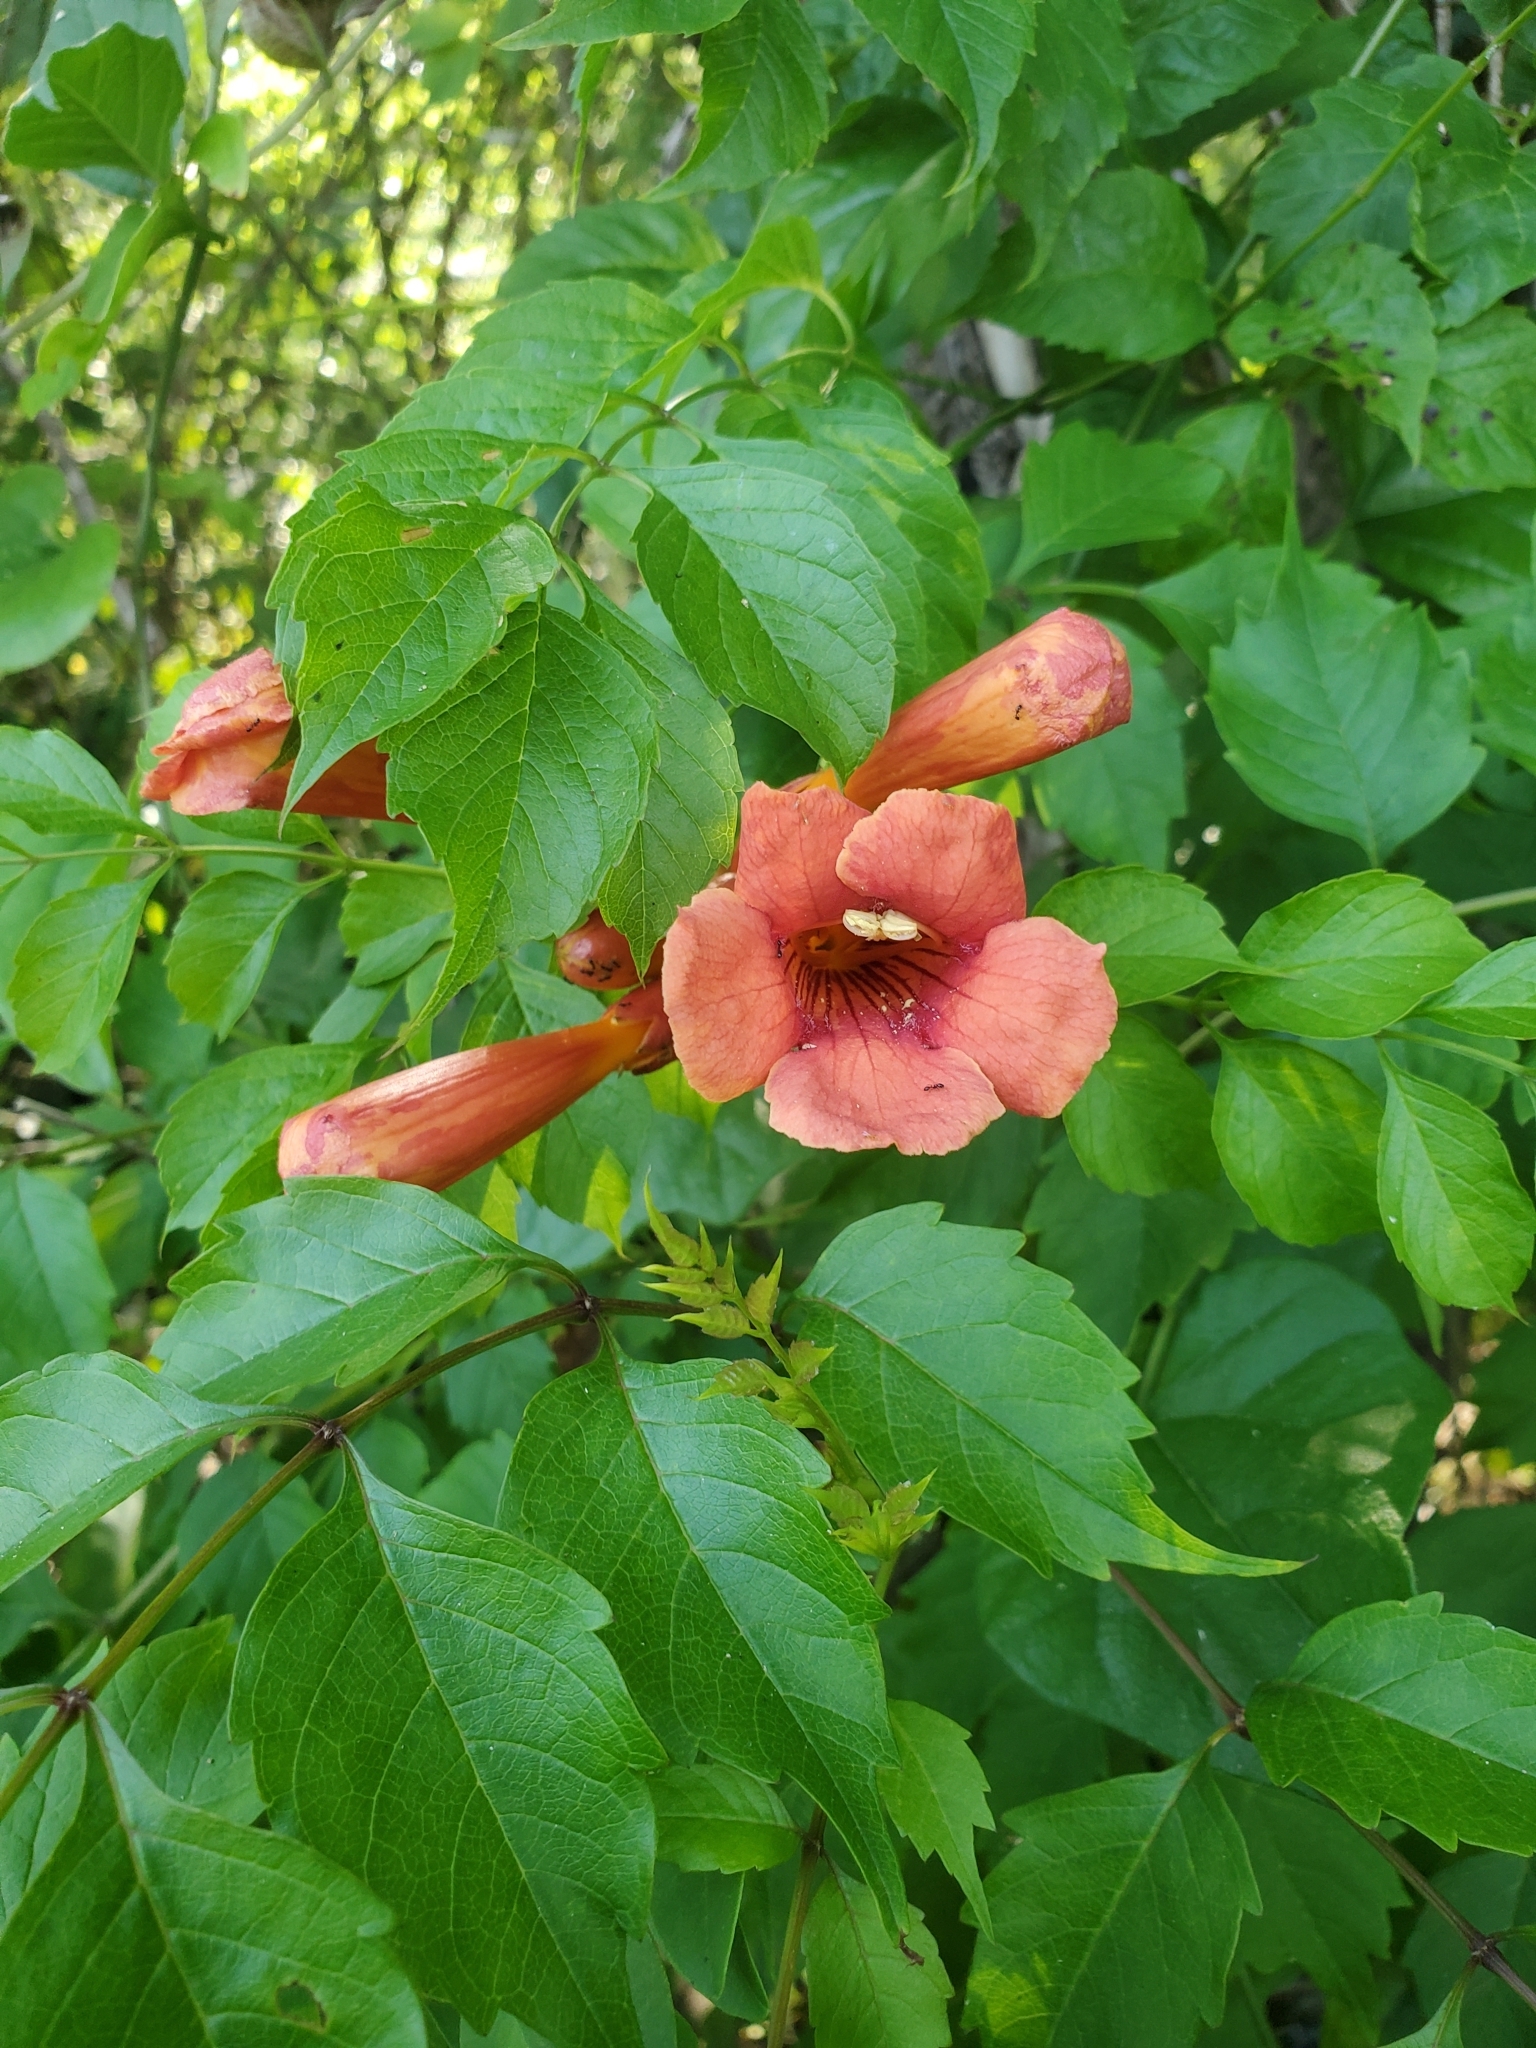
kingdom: Plantae
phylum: Tracheophyta
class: Magnoliopsida
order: Lamiales
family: Bignoniaceae
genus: Campsis
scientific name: Campsis radicans
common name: Trumpet-creeper
